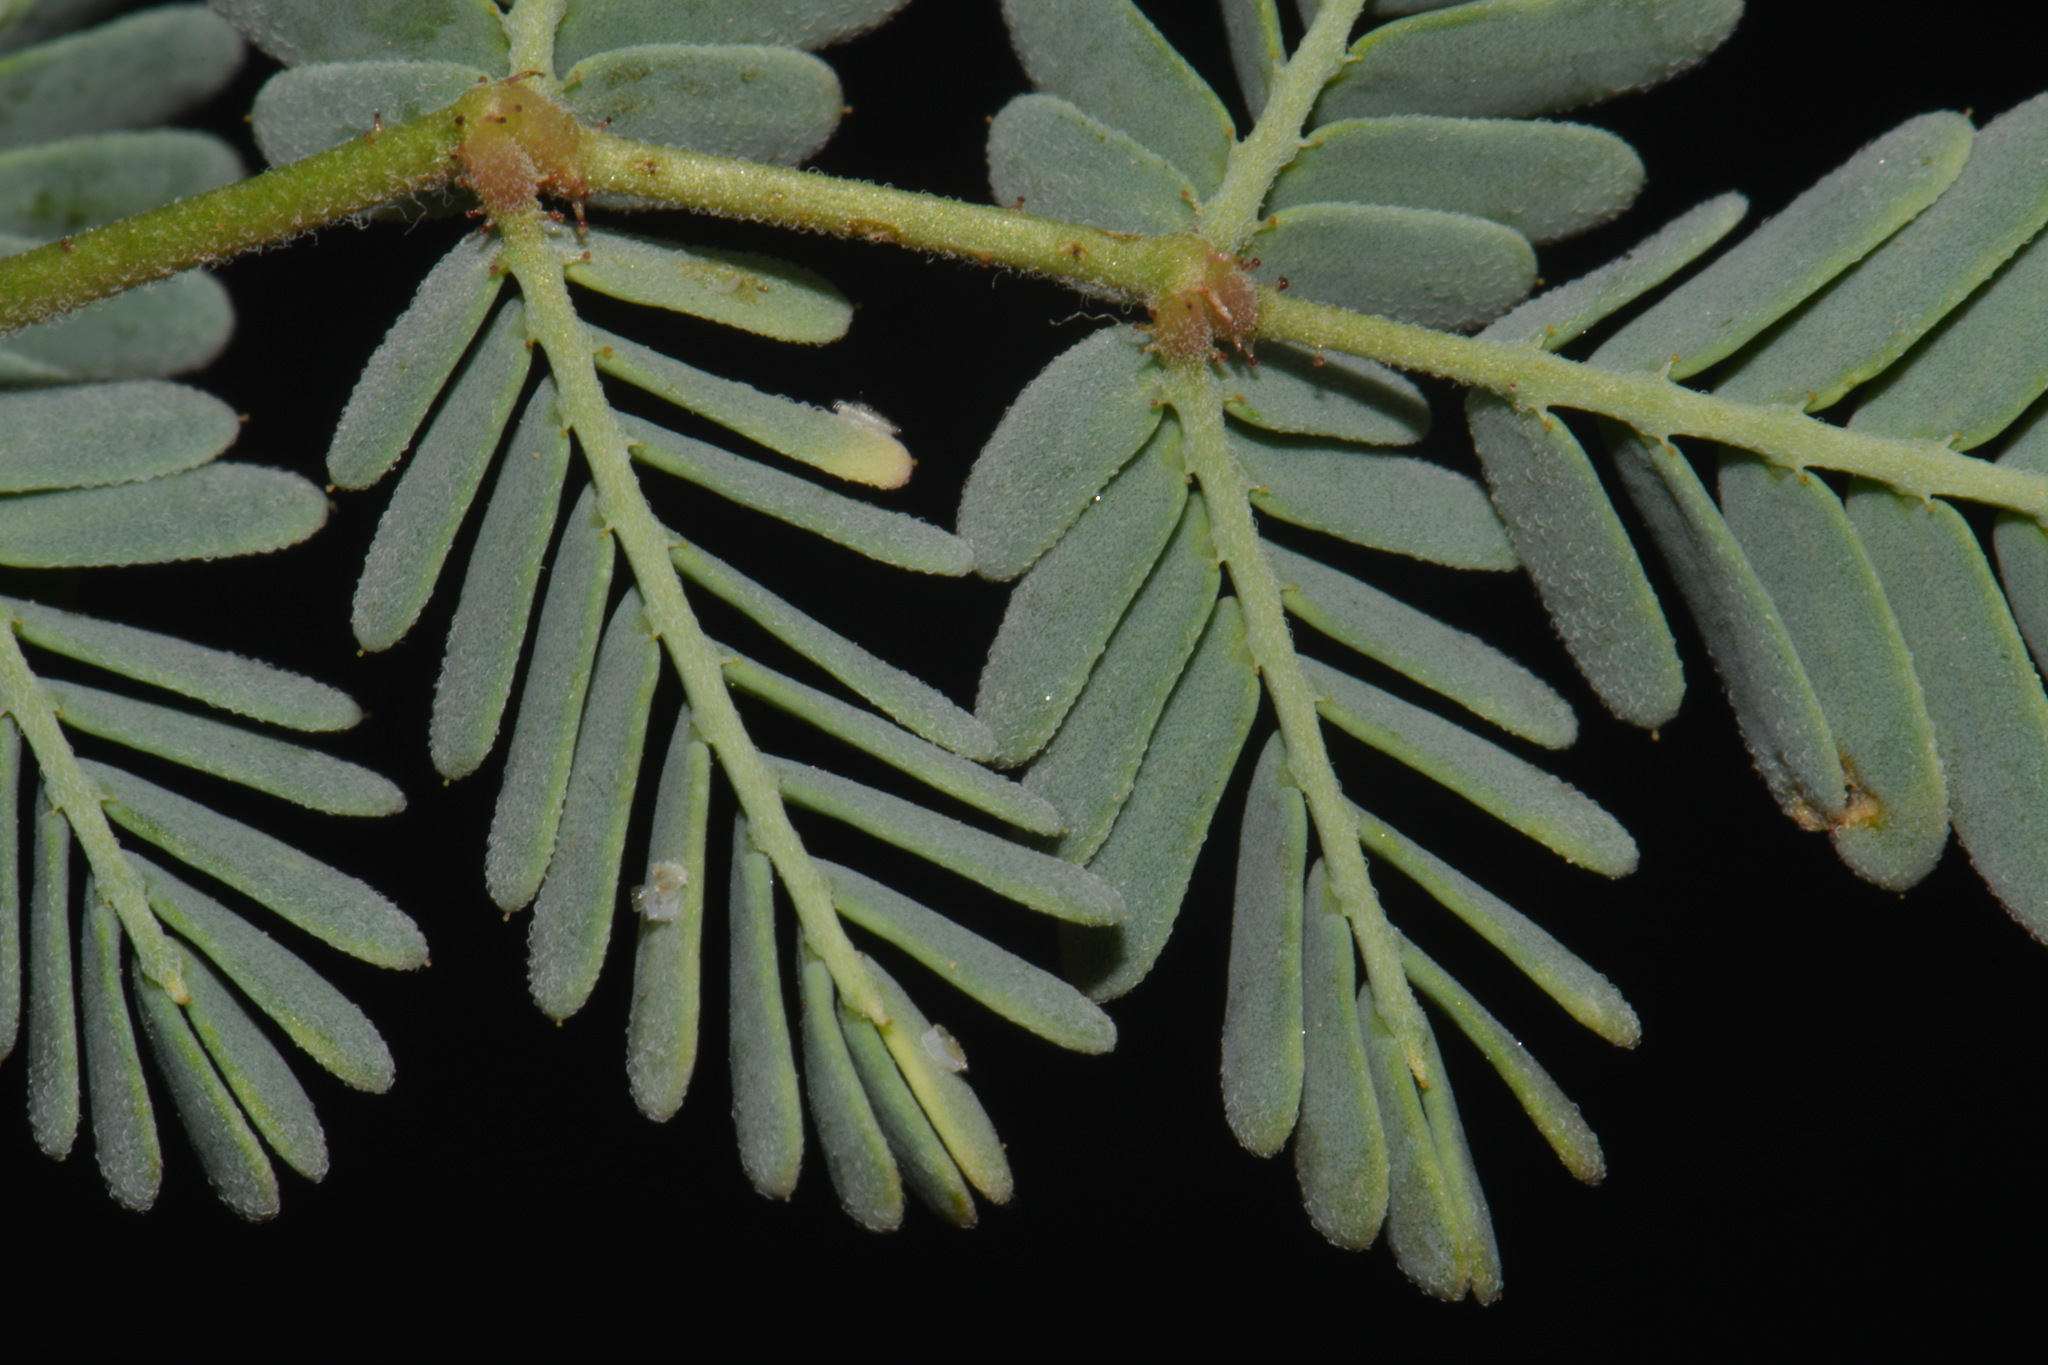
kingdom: Plantae
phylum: Tracheophyta
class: Magnoliopsida
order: Fabales
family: Fabaceae
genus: Hoffmannseggia
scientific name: Hoffmannseggia glauca
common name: Pignut
